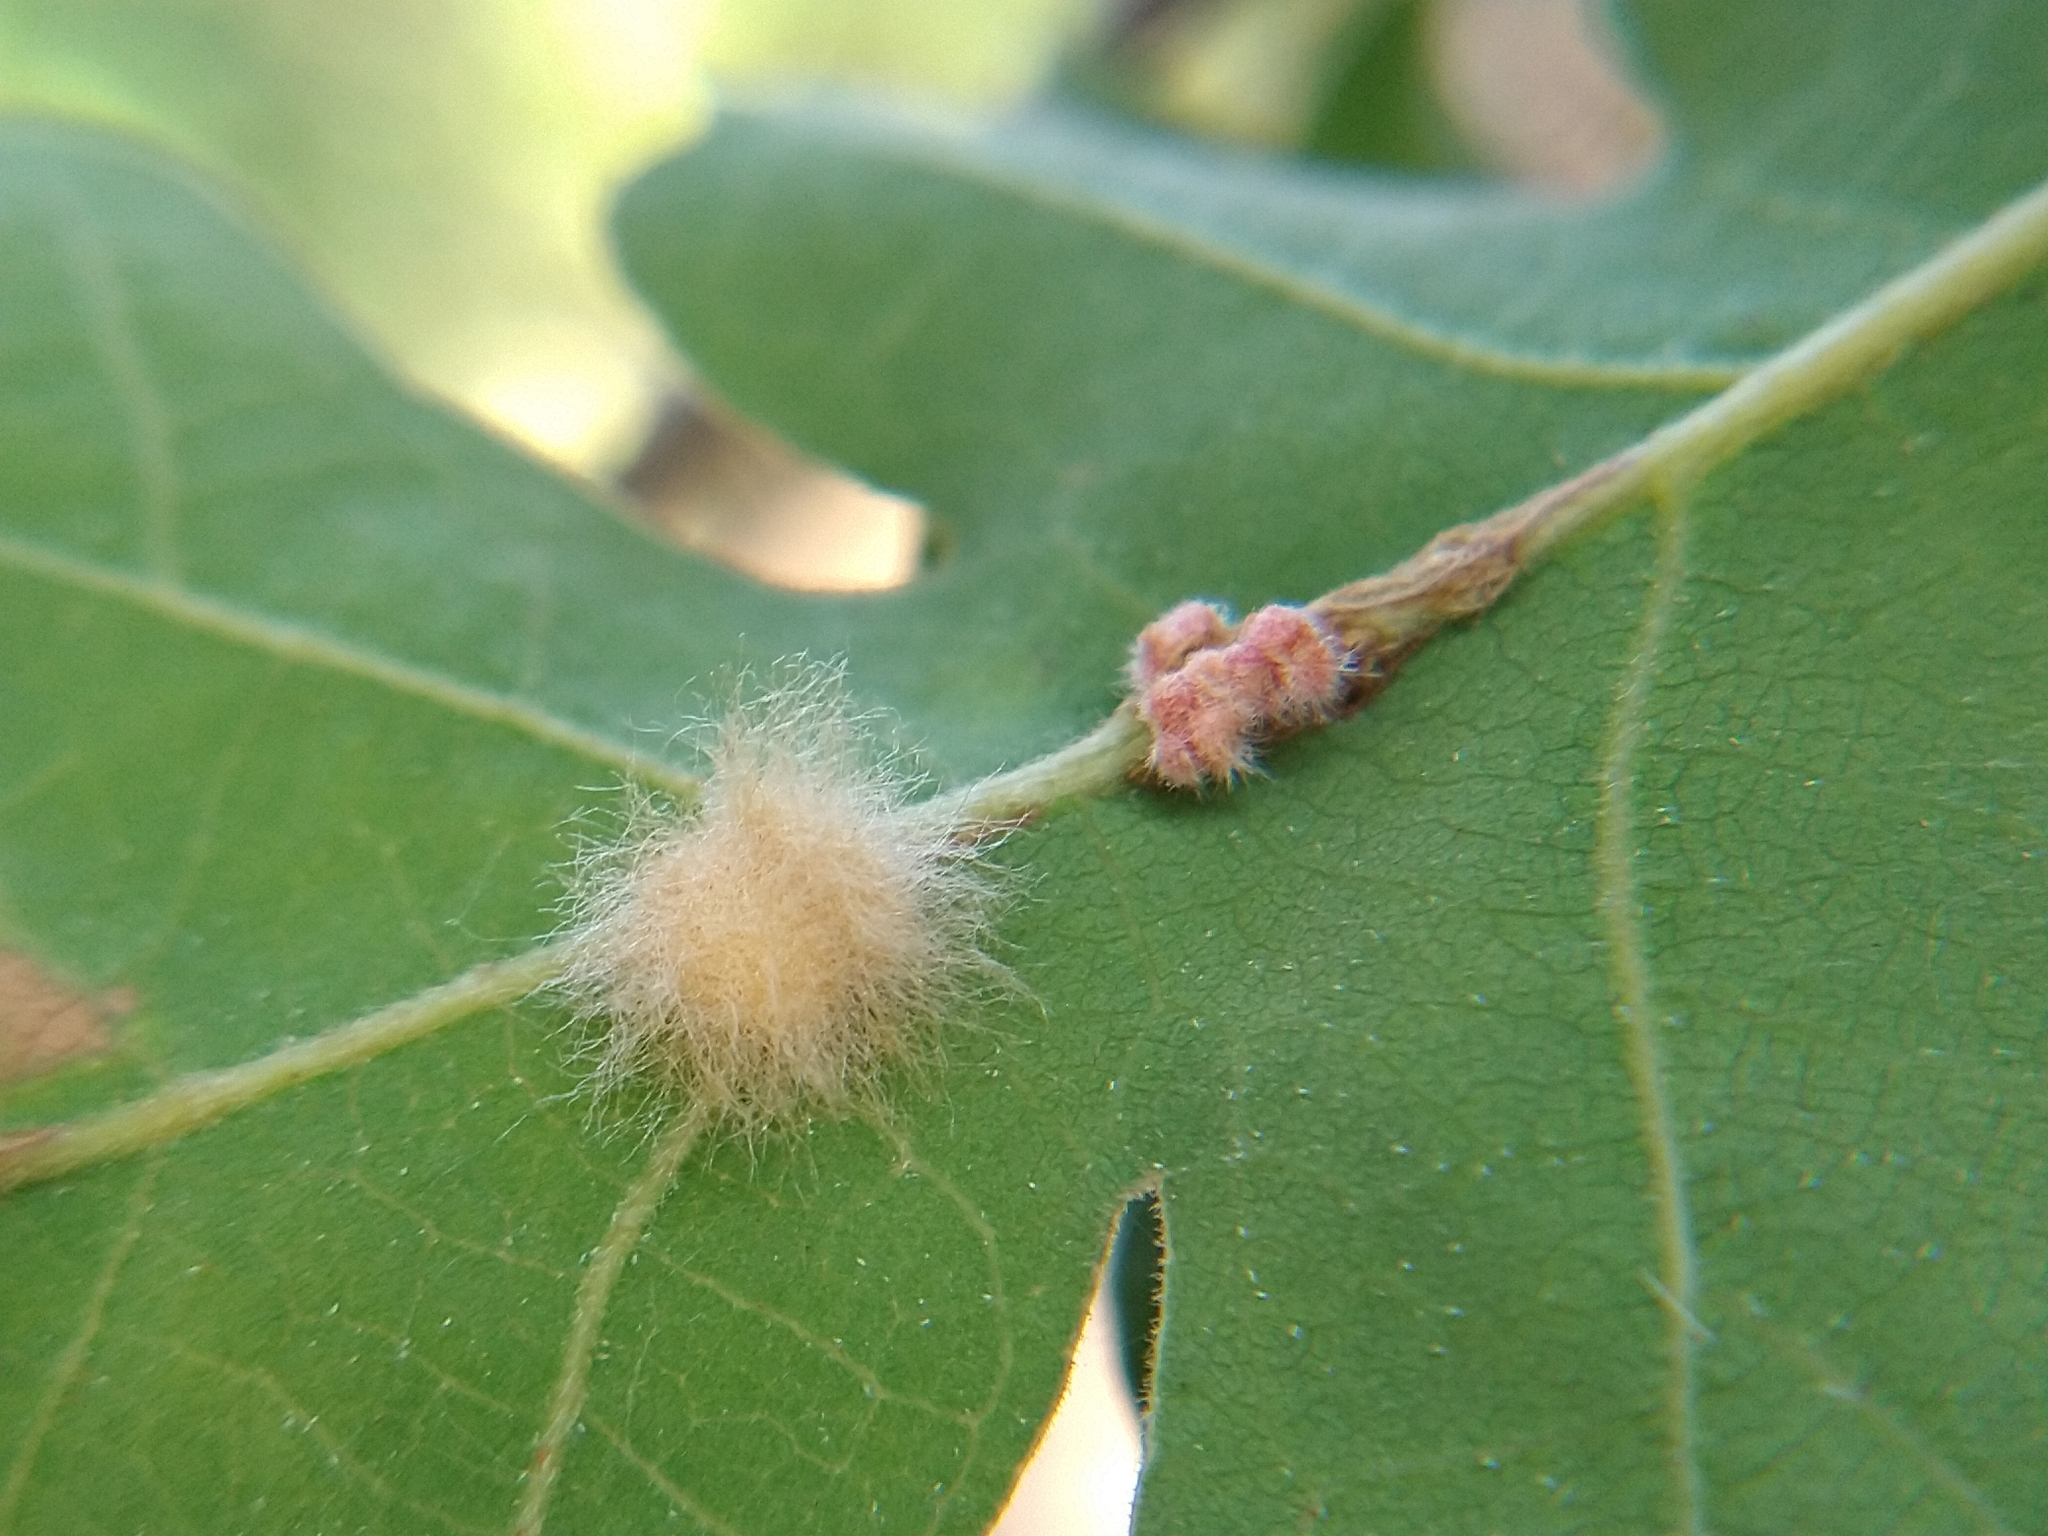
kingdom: Animalia
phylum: Arthropoda
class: Insecta
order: Hymenoptera
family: Cynipidae
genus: Andricus
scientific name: Andricus Druon fullawayi
